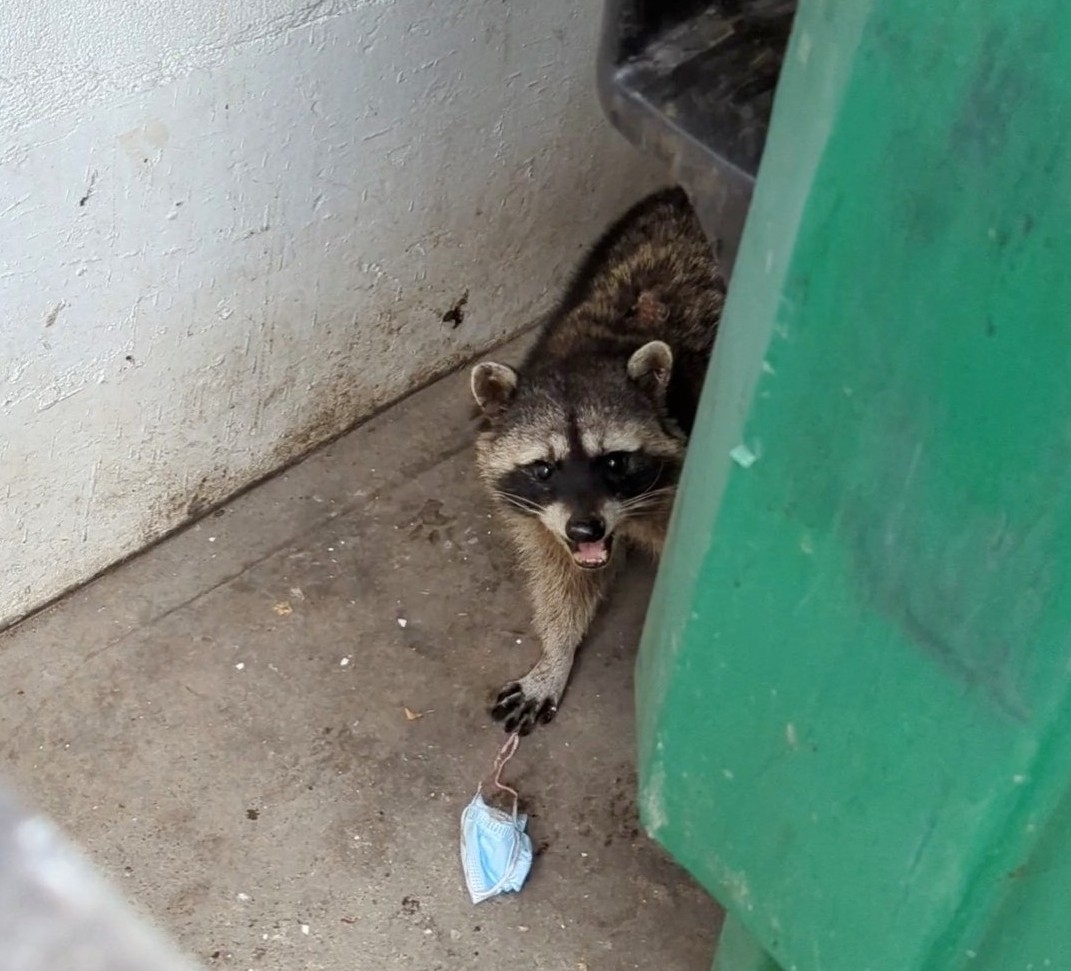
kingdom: Animalia
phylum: Chordata
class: Mammalia
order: Carnivora
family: Procyonidae
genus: Procyon
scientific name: Procyon lotor
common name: Raccoon
